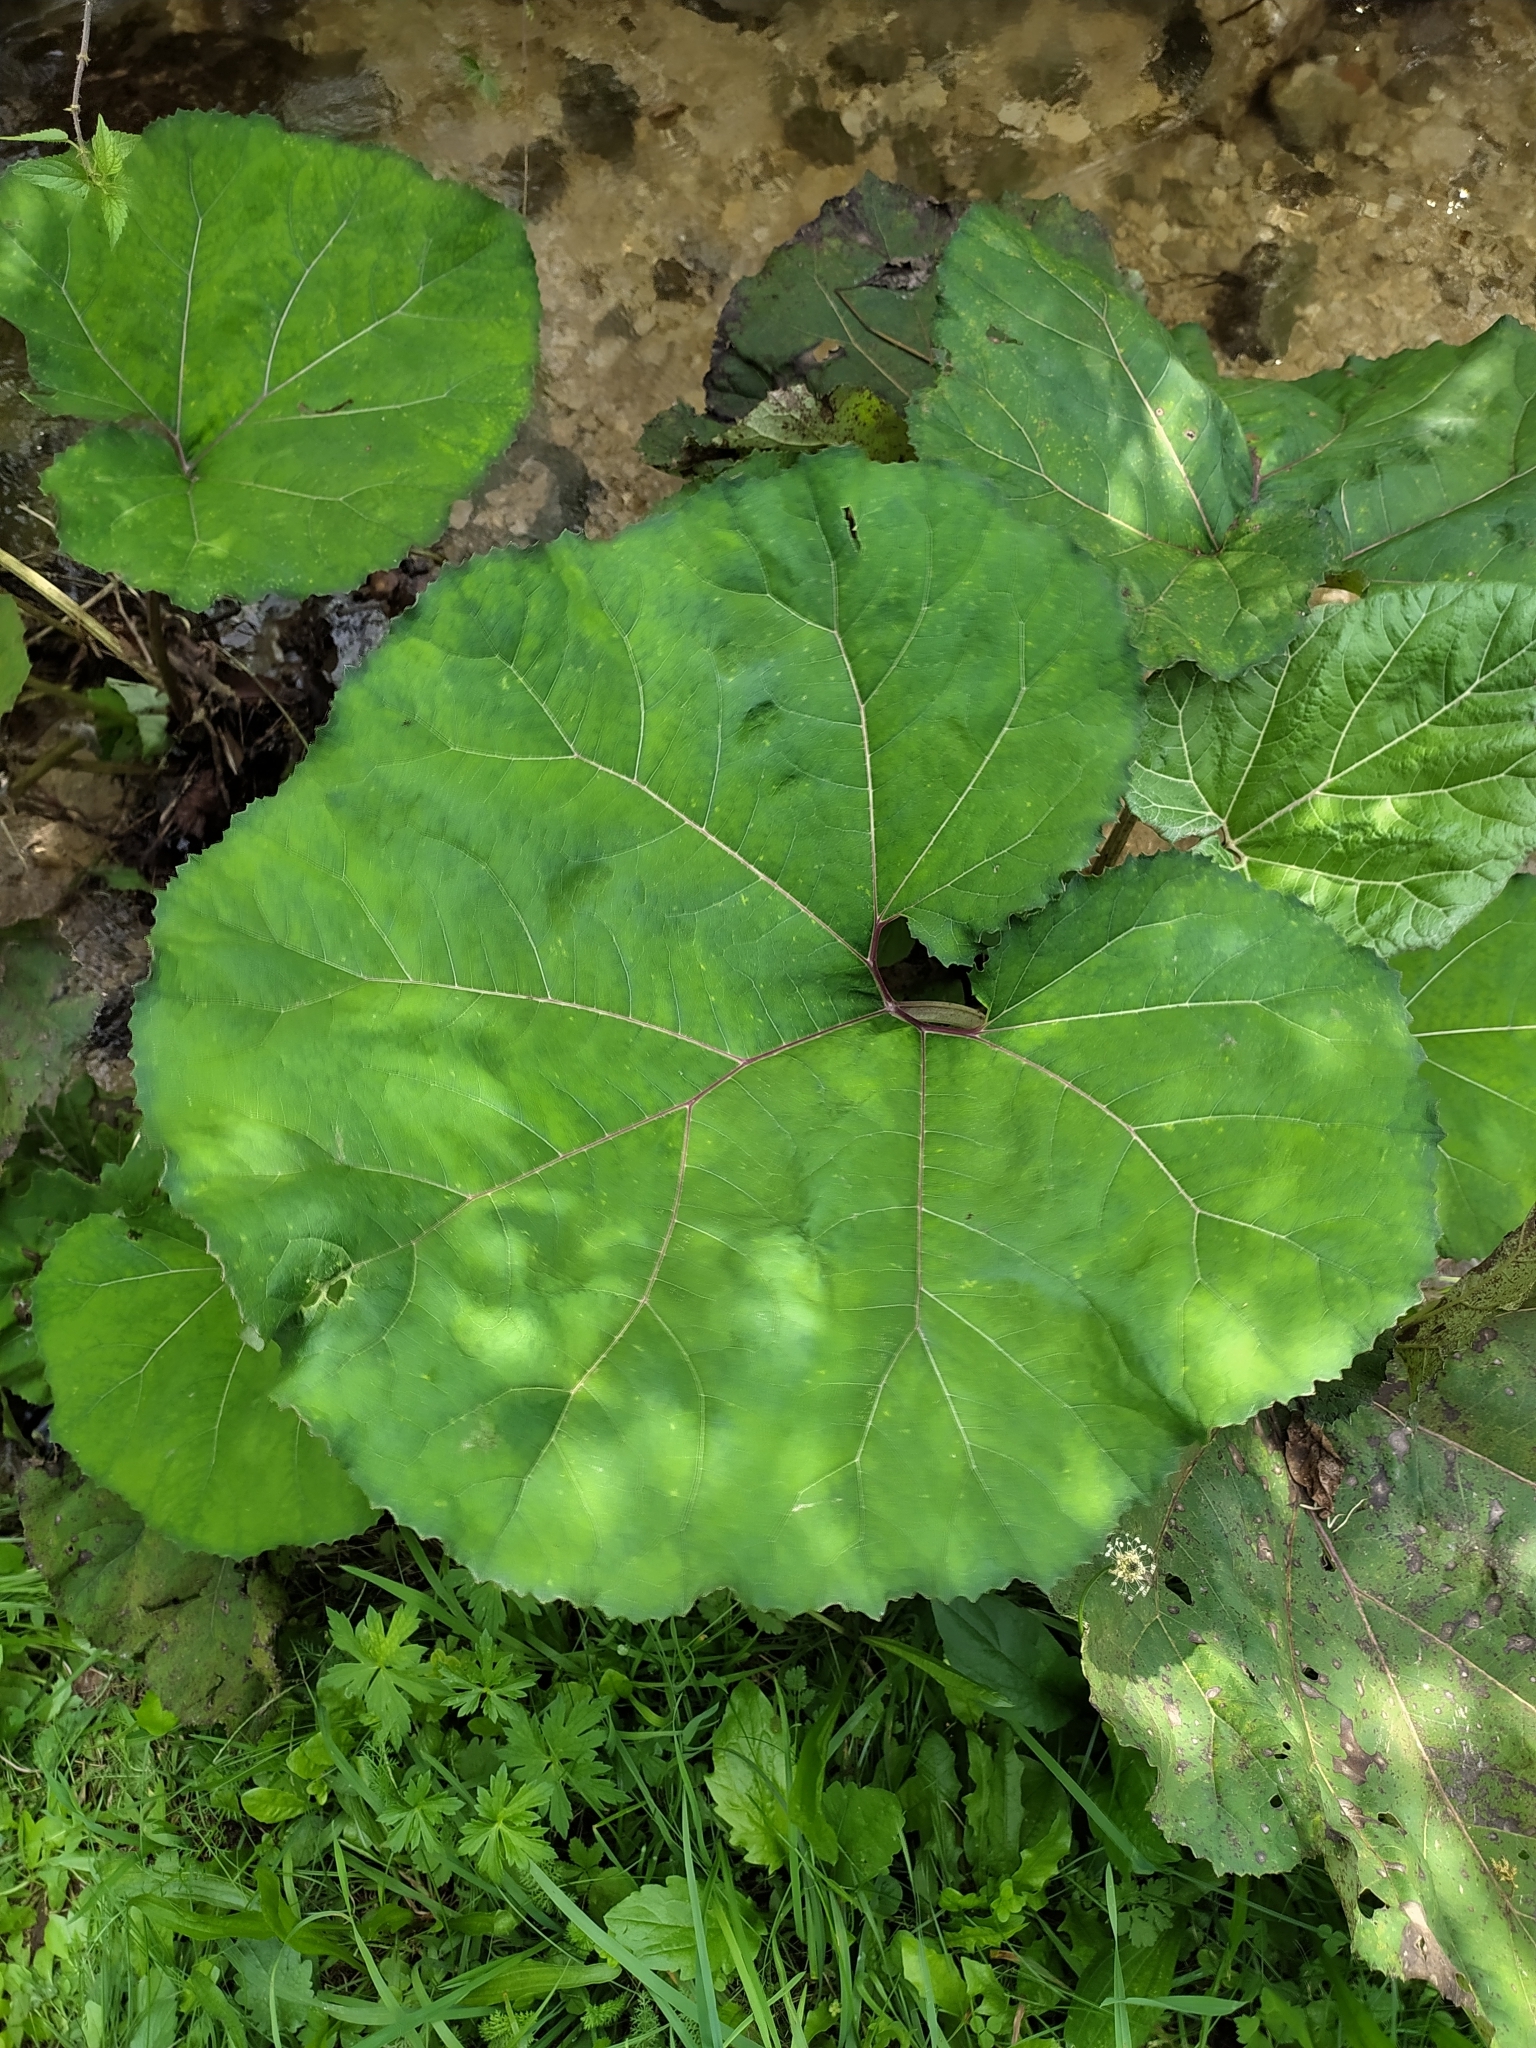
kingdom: Plantae
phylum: Tracheophyta
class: Magnoliopsida
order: Asterales
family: Asteraceae
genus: Petasites
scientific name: Petasites hybridus
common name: Butterbur
